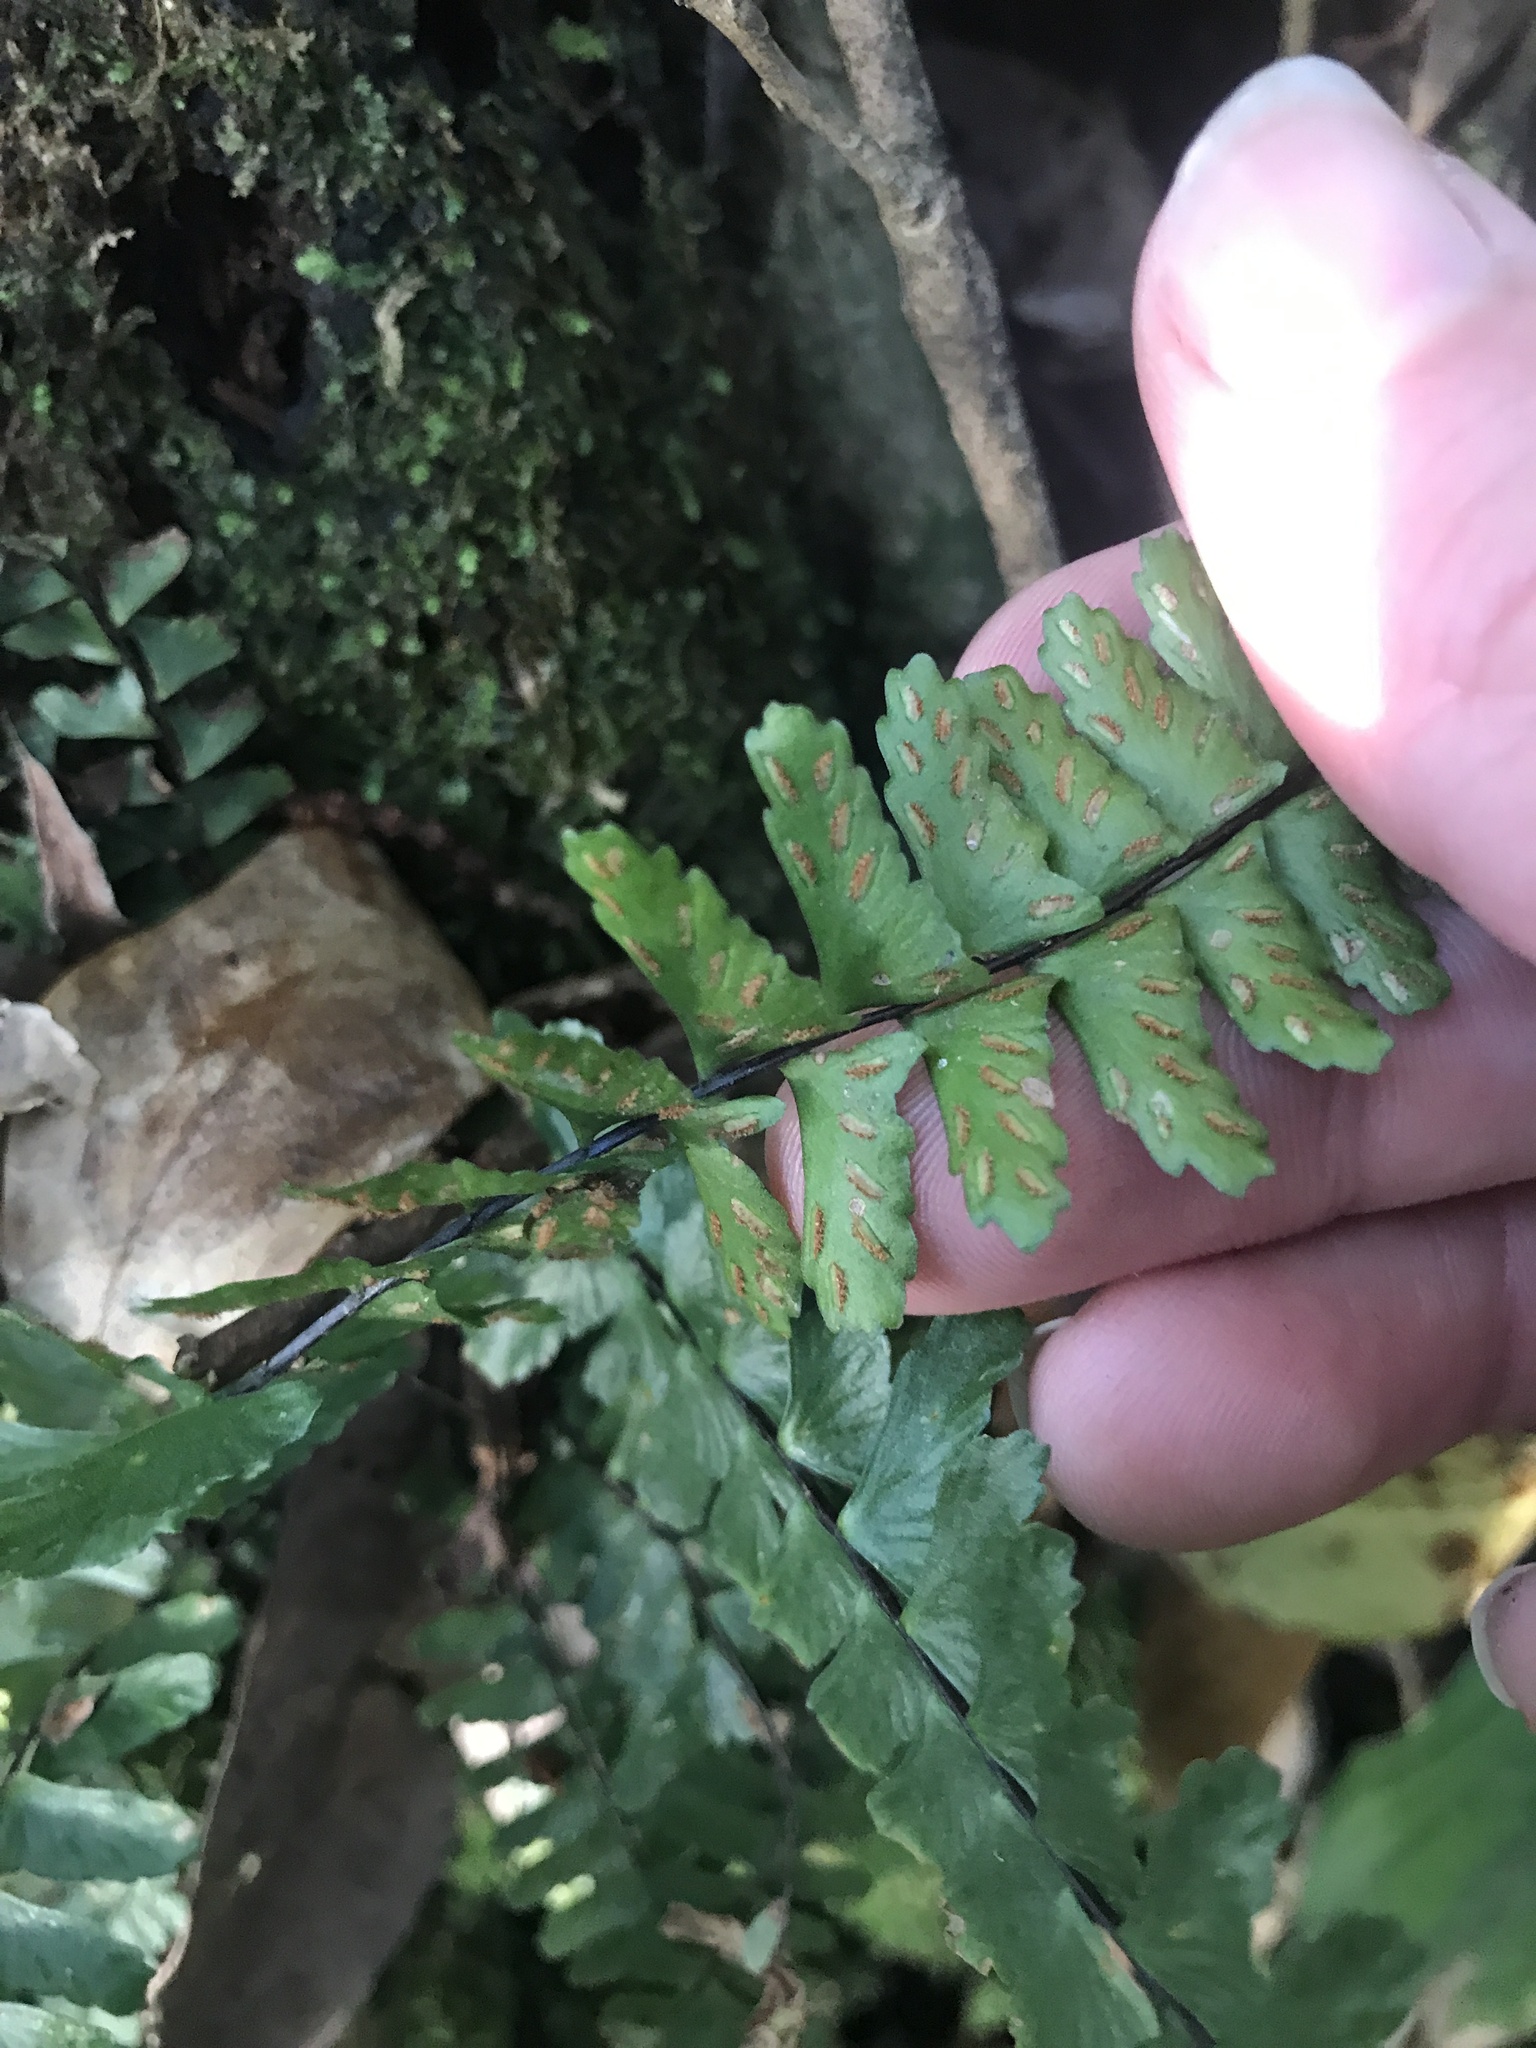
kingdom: Plantae
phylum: Tracheophyta
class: Polypodiopsida
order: Polypodiales
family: Aspleniaceae
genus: Asplenium
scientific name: Asplenium normale
